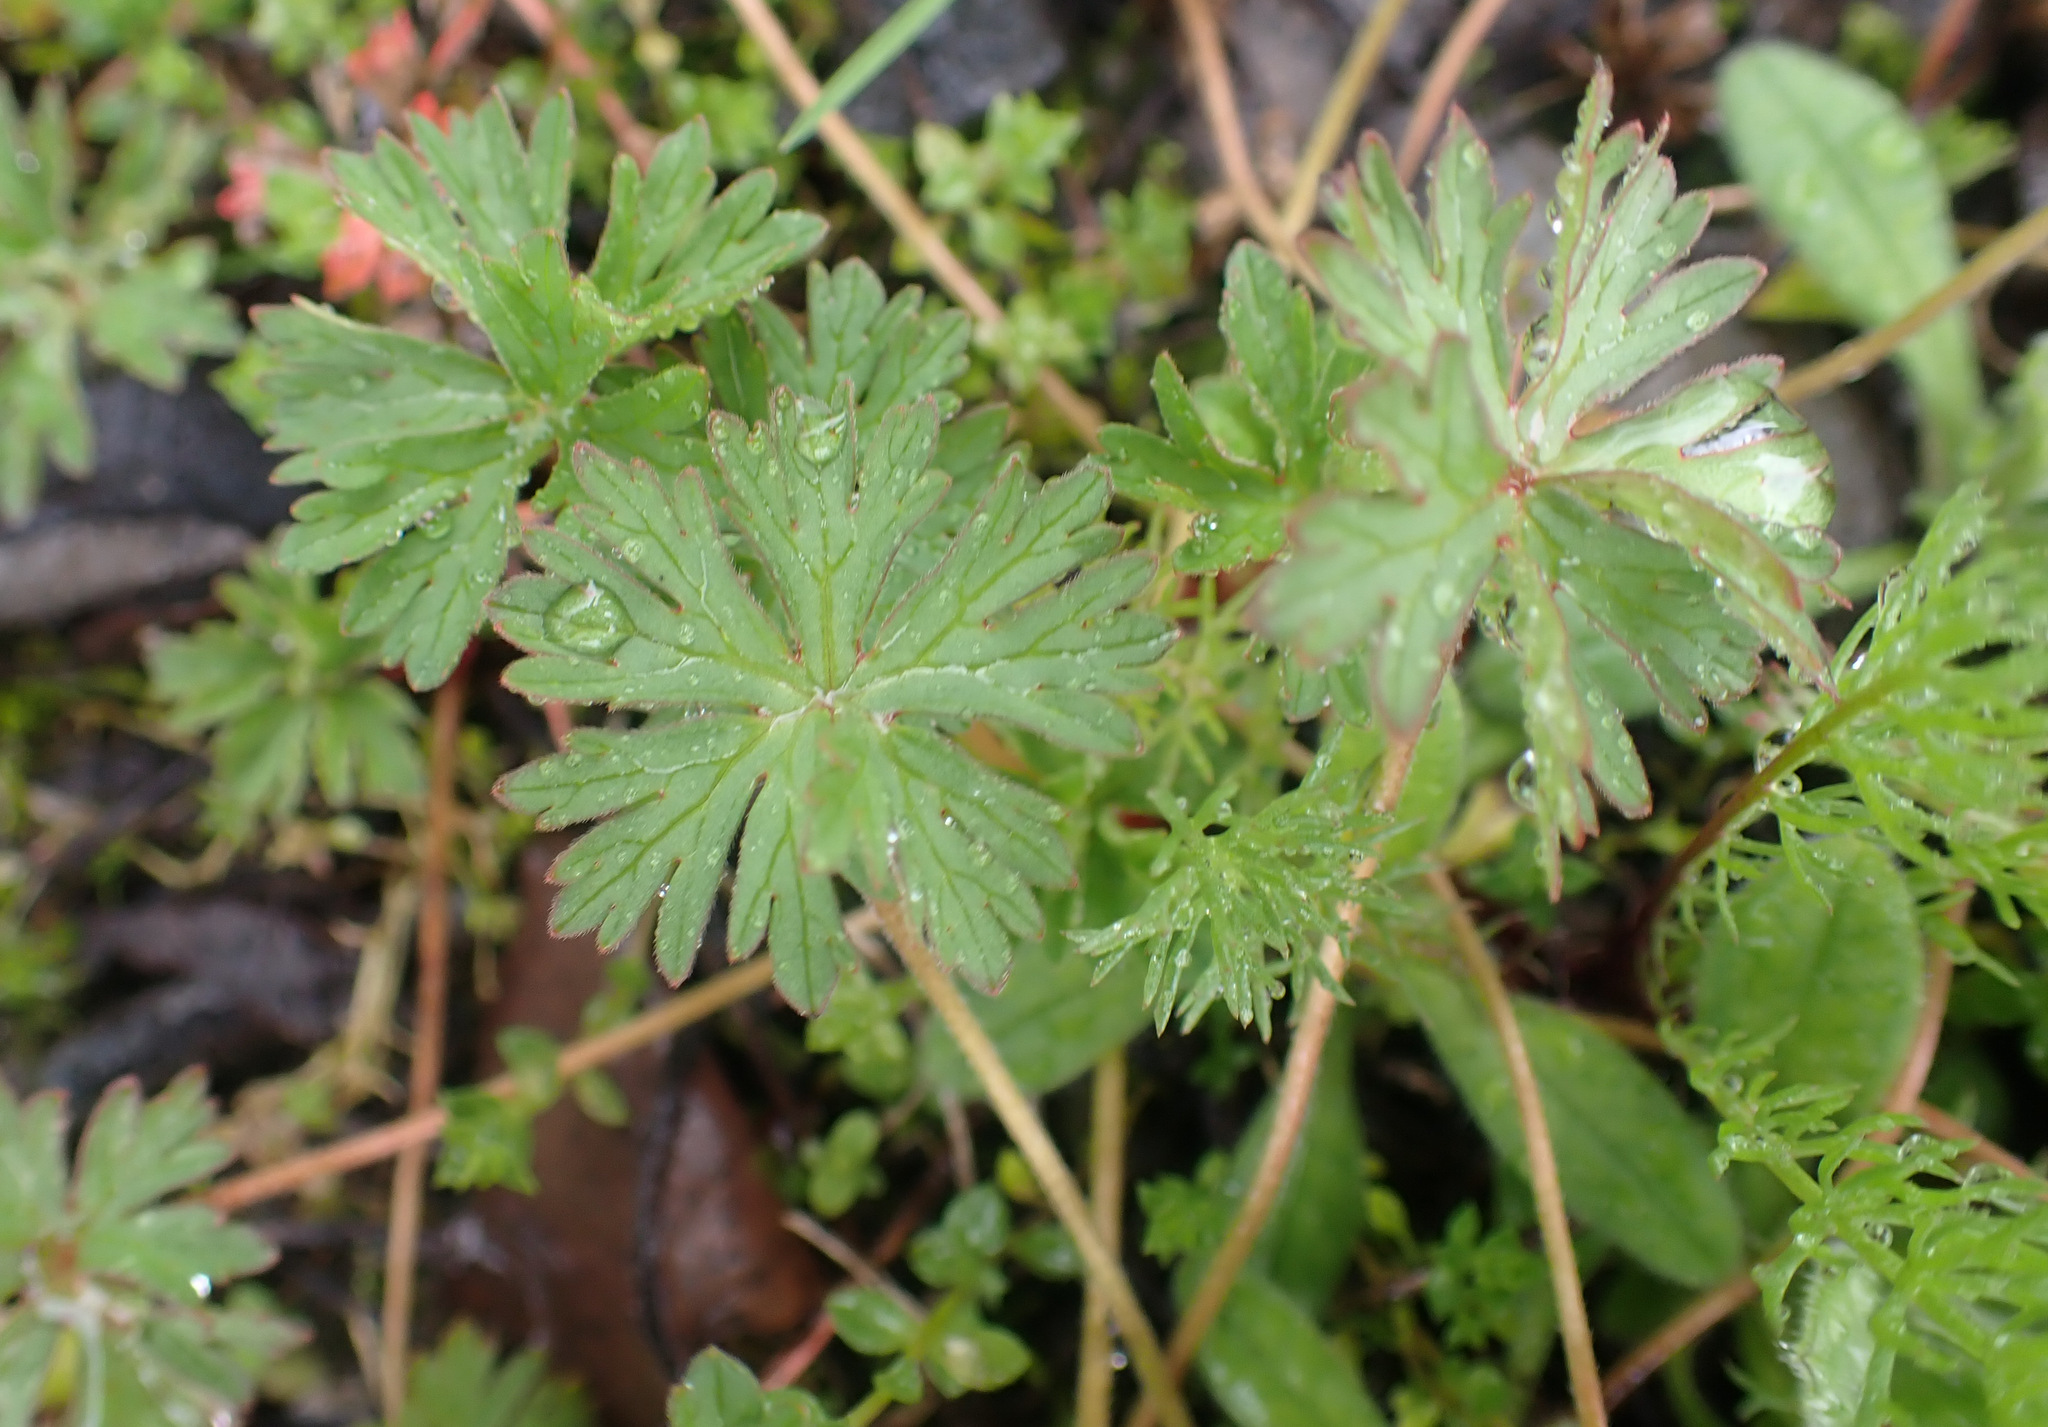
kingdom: Plantae
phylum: Tracheophyta
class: Magnoliopsida
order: Geraniales
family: Geraniaceae
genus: Geranium
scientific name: Geranium dissectum
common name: Cut-leaved crane's-bill
